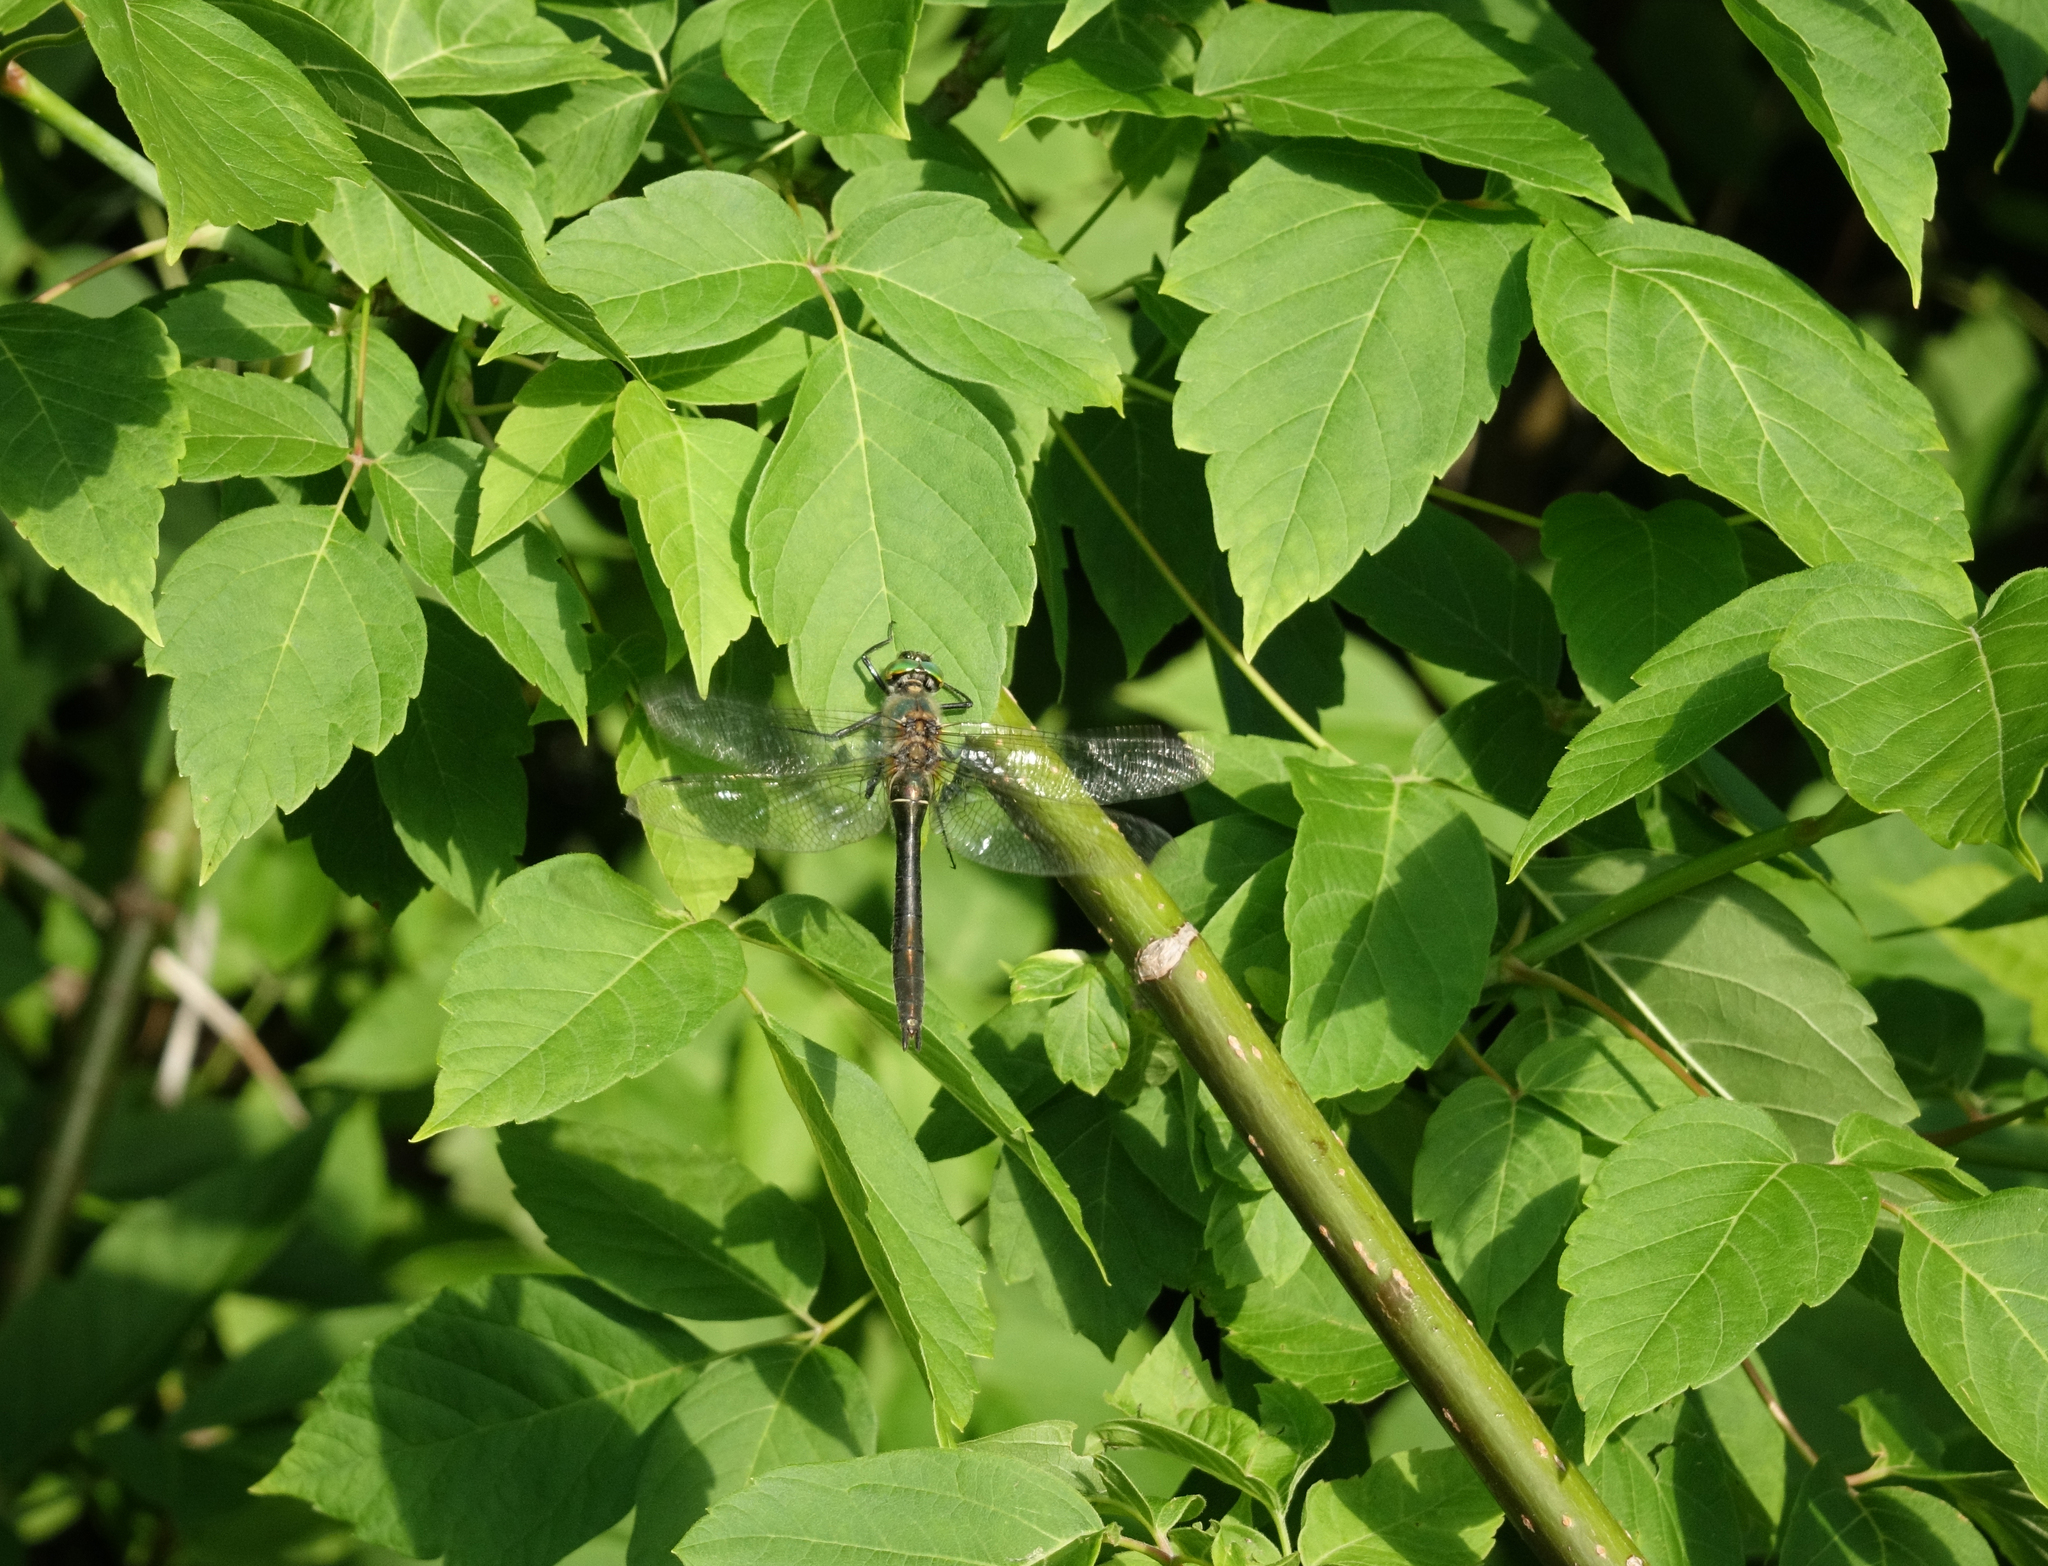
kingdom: Plantae
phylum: Tracheophyta
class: Magnoliopsida
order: Sapindales
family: Sapindaceae
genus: Acer
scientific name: Acer negundo
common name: Ashleaf maple
